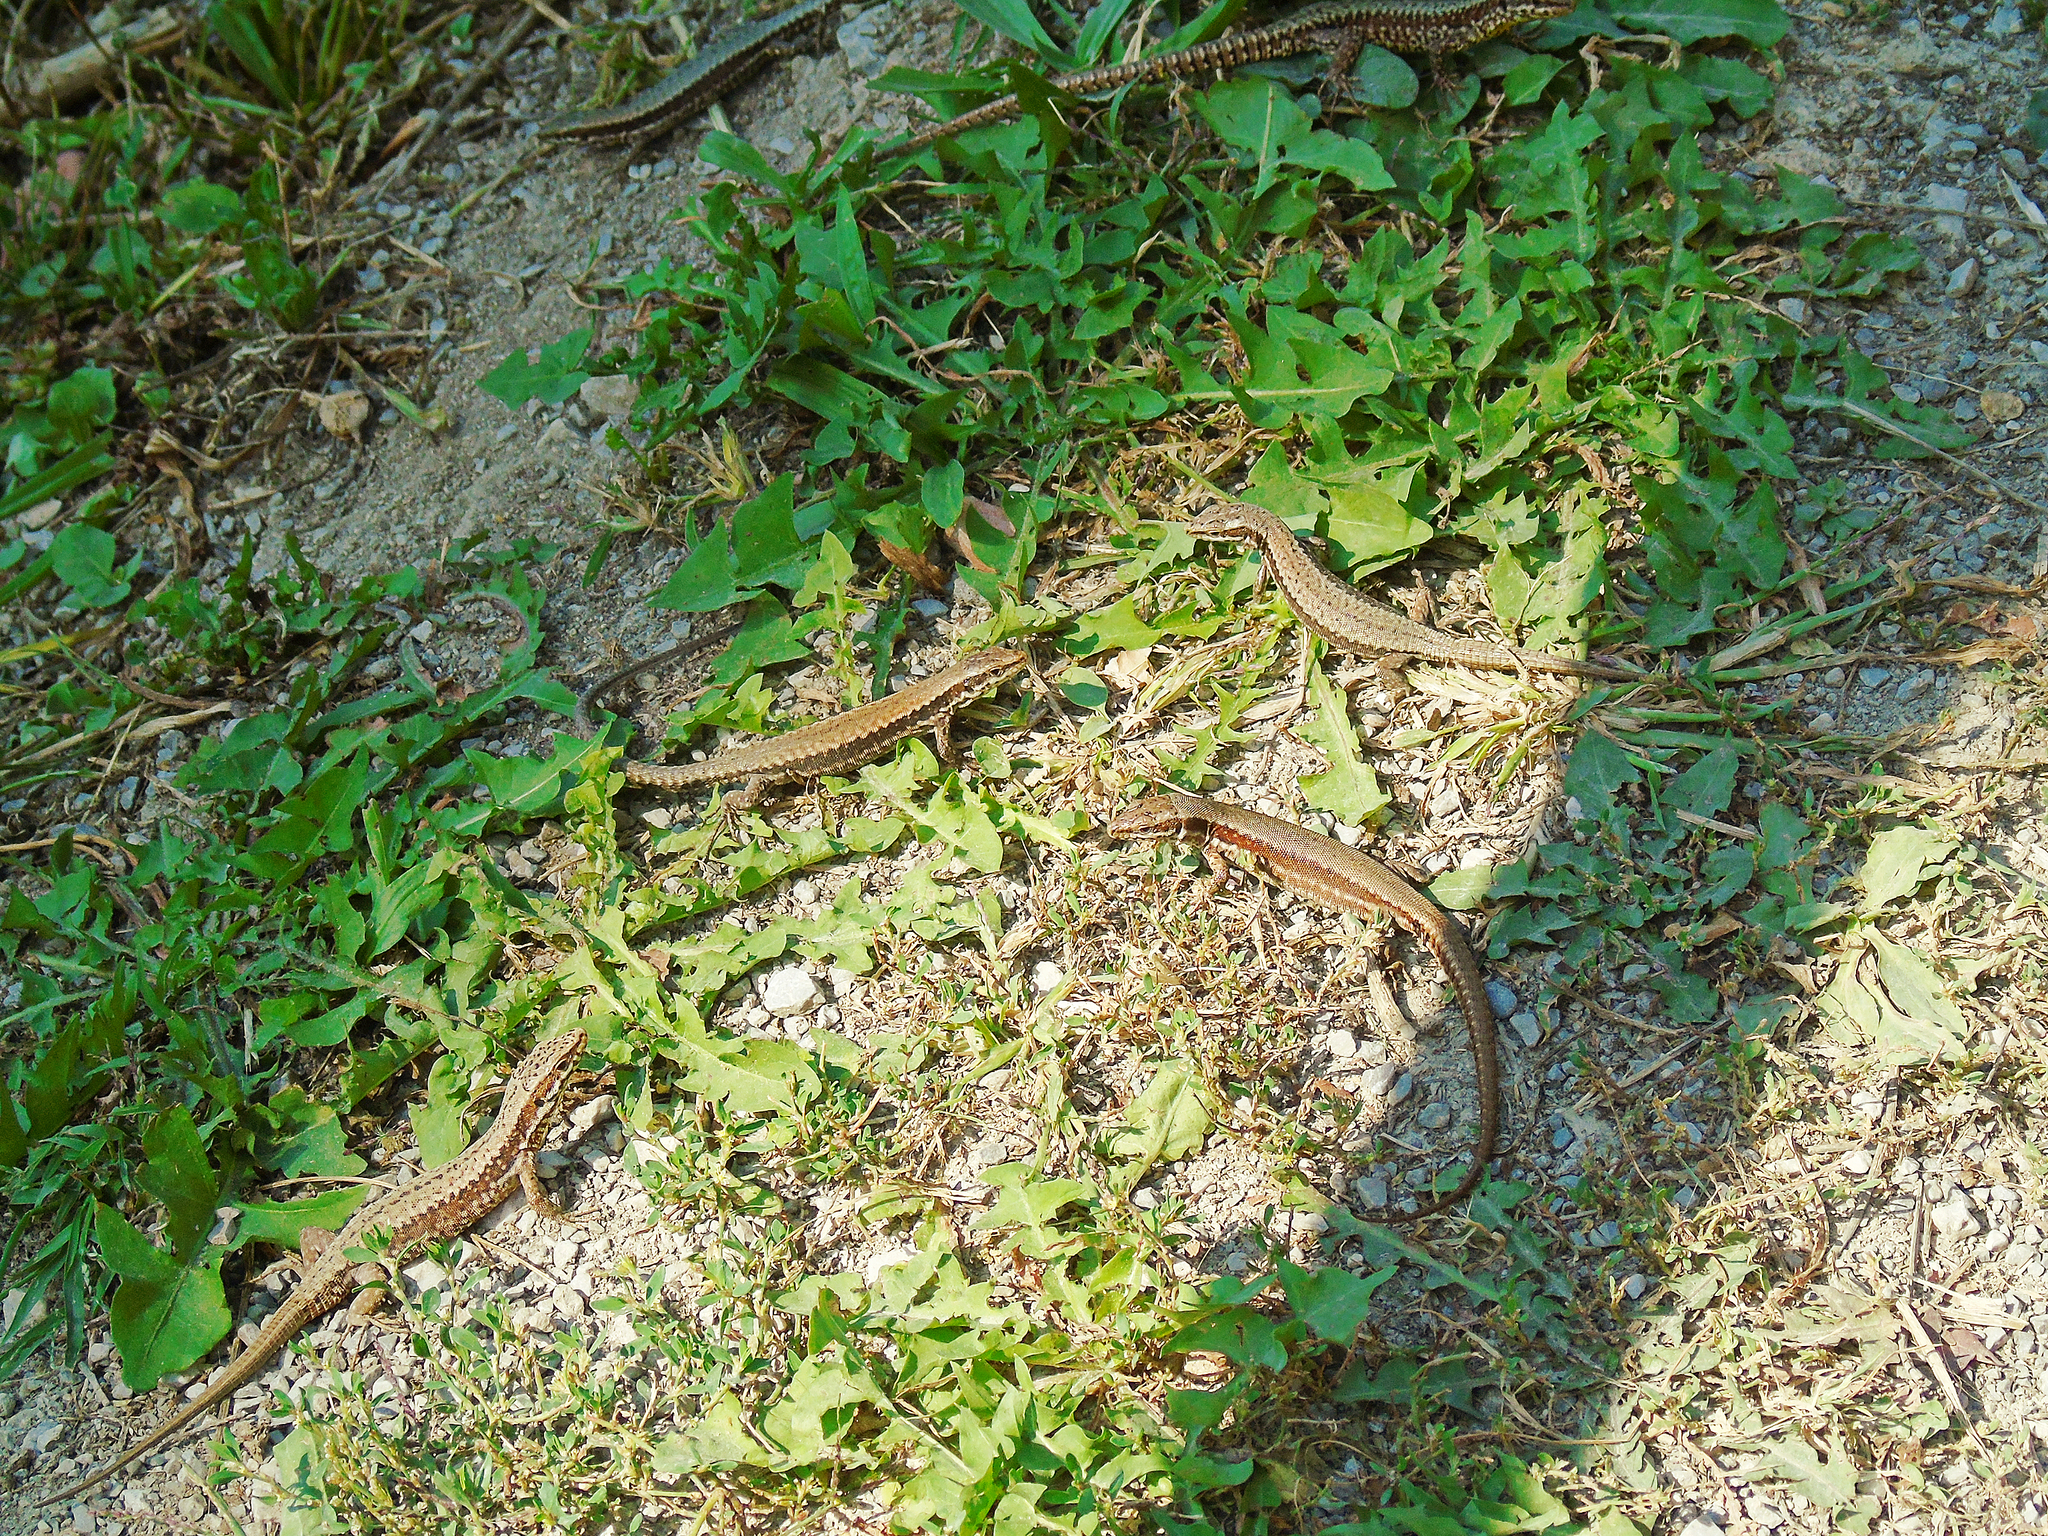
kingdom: Animalia
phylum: Chordata
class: Squamata
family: Lacertidae
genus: Podarcis
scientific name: Podarcis muralis
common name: Common wall lizard
